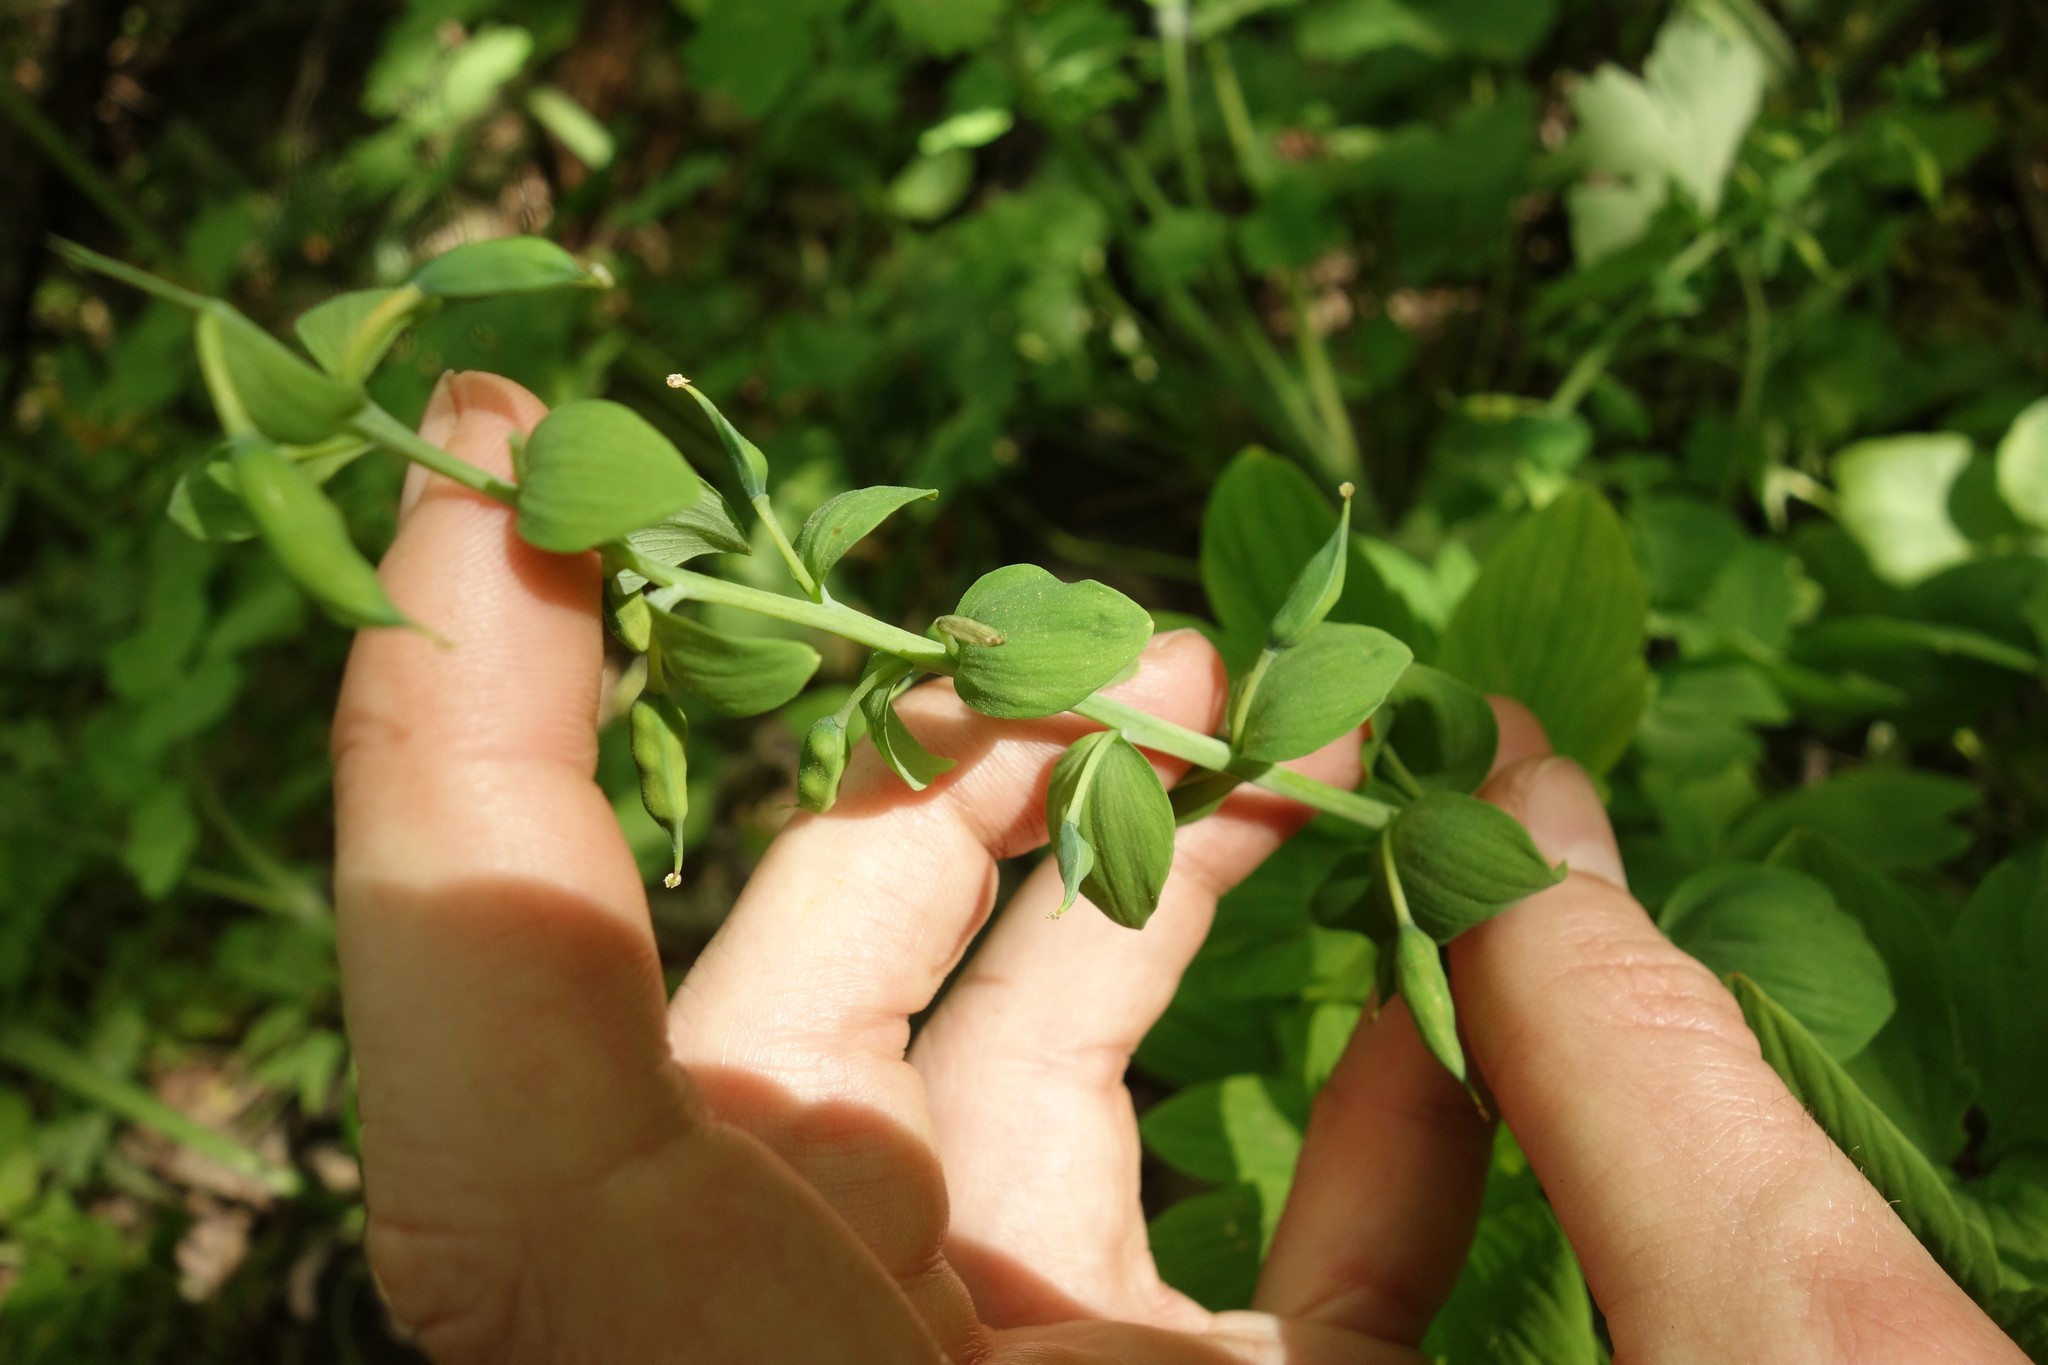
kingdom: Plantae
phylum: Tracheophyta
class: Magnoliopsida
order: Ranunculales
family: Papaveraceae
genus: Corydalis
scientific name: Corydalis cava
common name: Hollowroot
